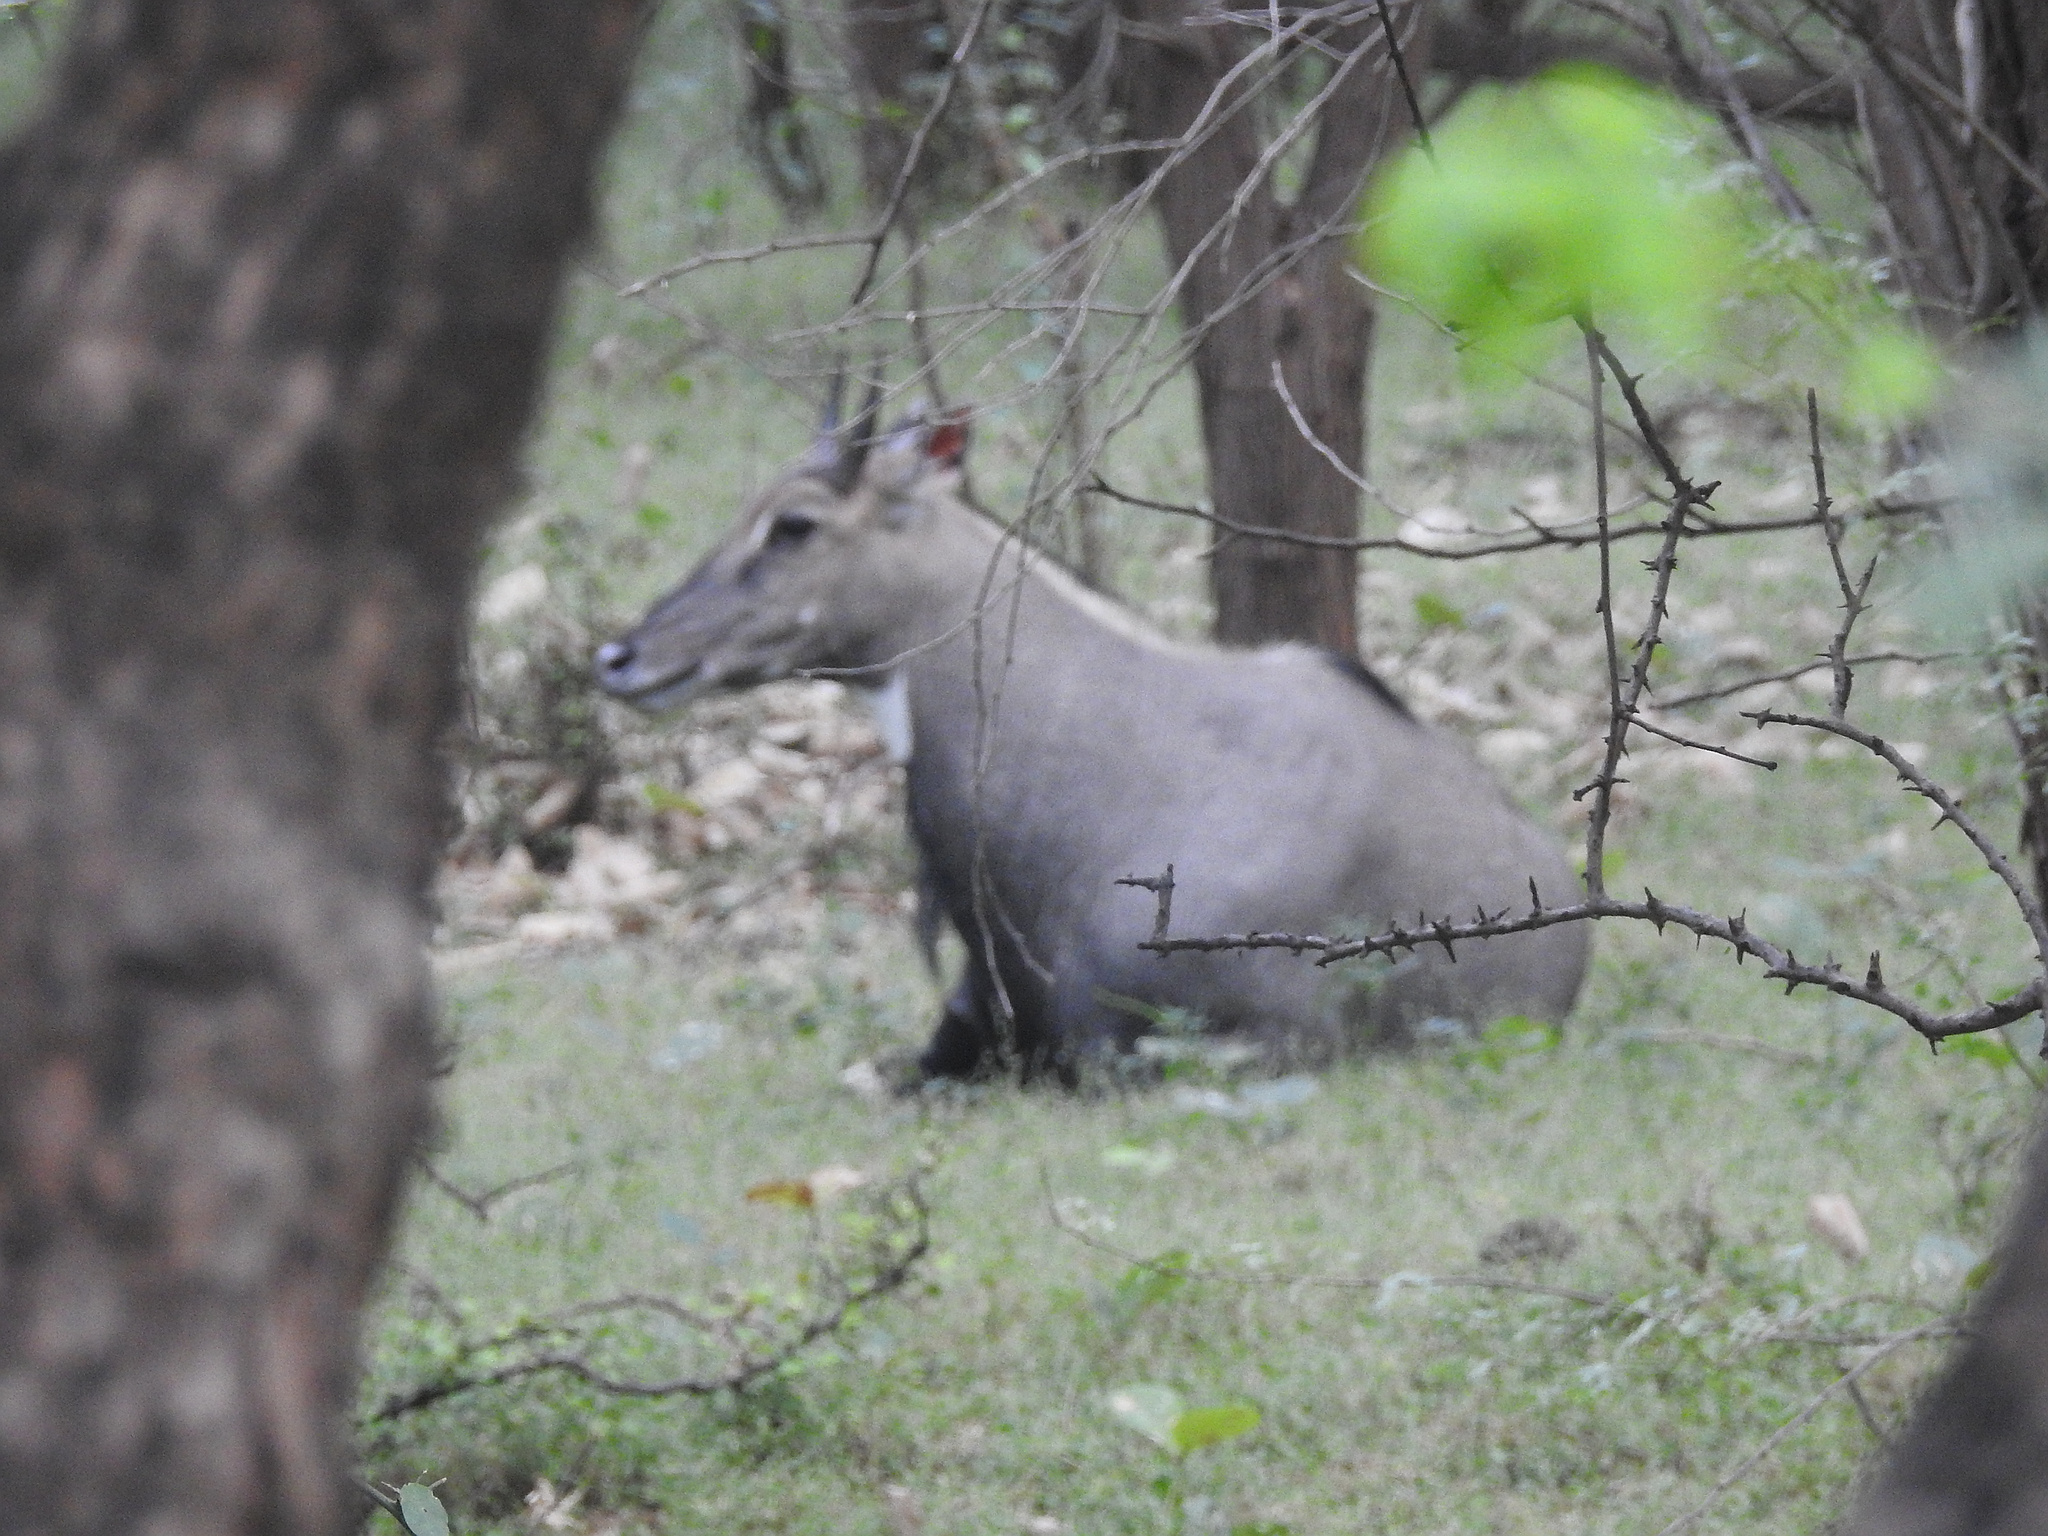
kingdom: Animalia
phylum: Chordata
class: Mammalia
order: Artiodactyla
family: Bovidae
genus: Boselaphus
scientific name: Boselaphus tragocamelus
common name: Nilgai
